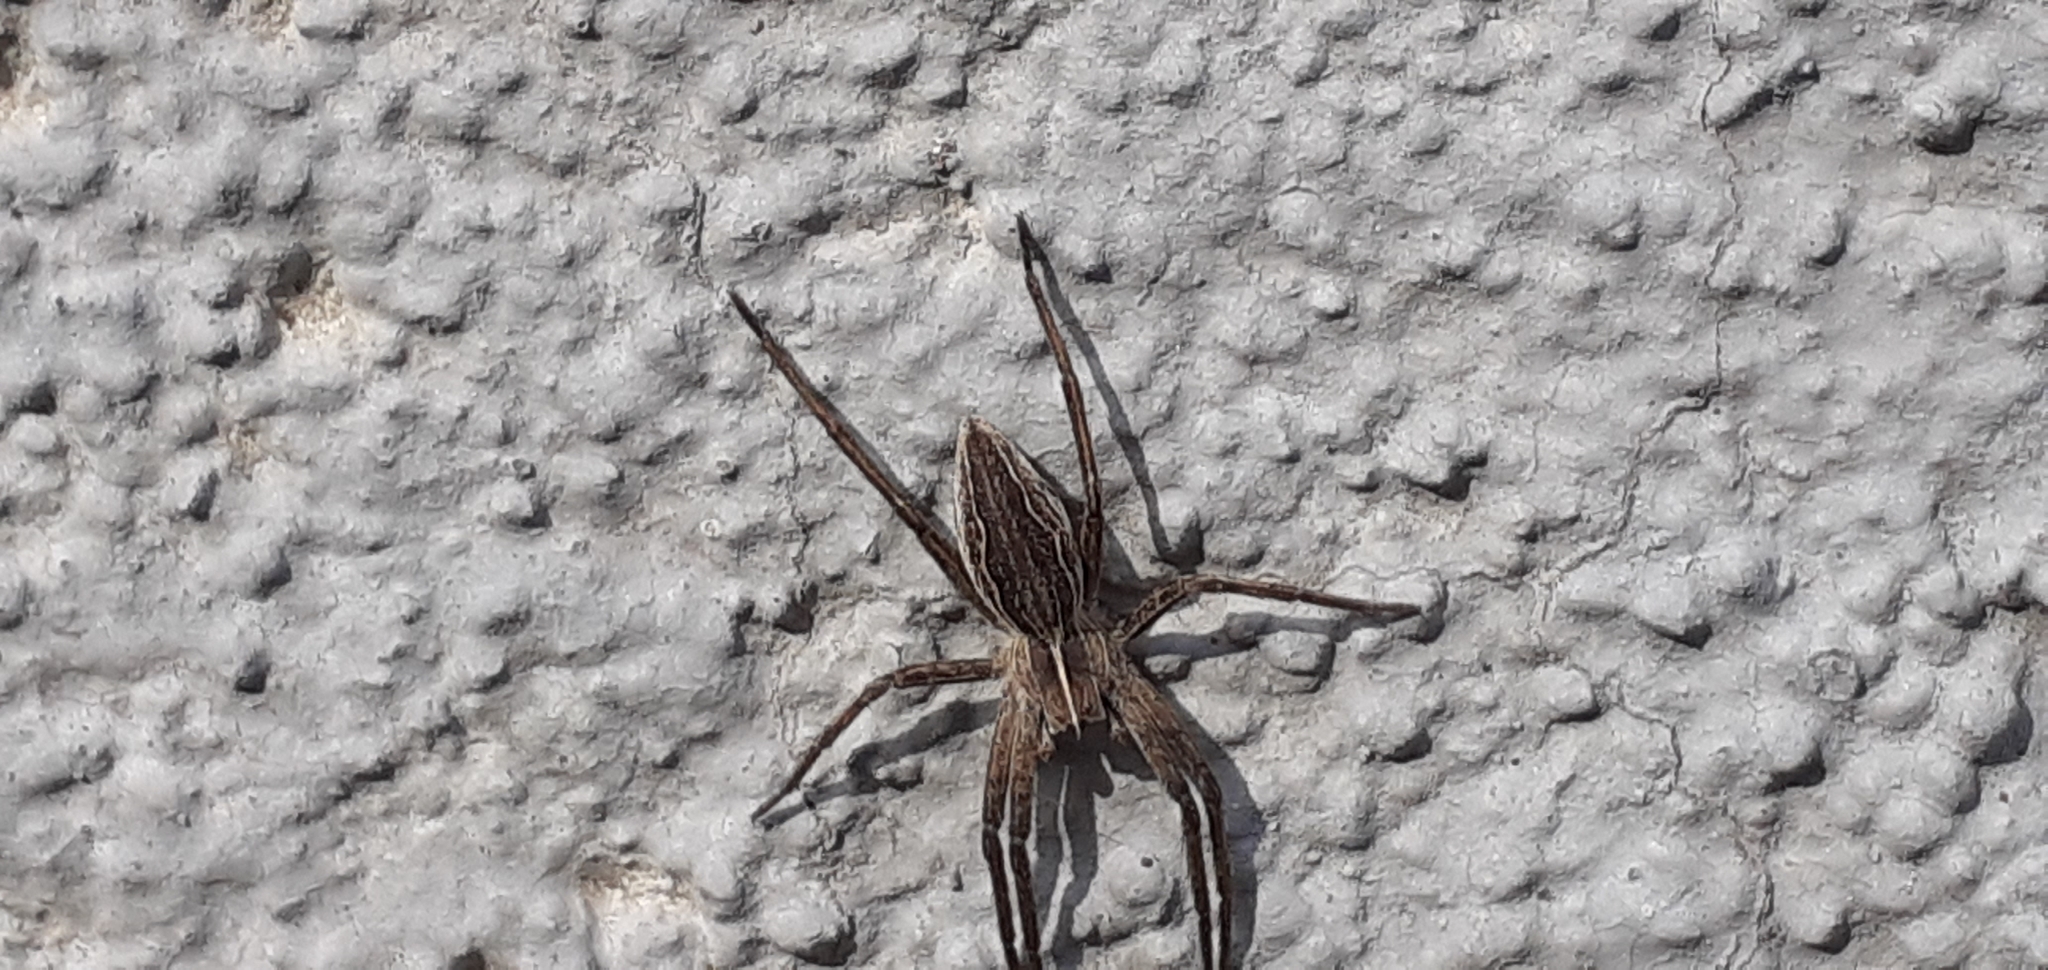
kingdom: Animalia
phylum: Arthropoda
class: Arachnida
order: Araneae
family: Pisauridae
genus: Pisaura
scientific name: Pisaura mirabilis
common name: Tent spider
